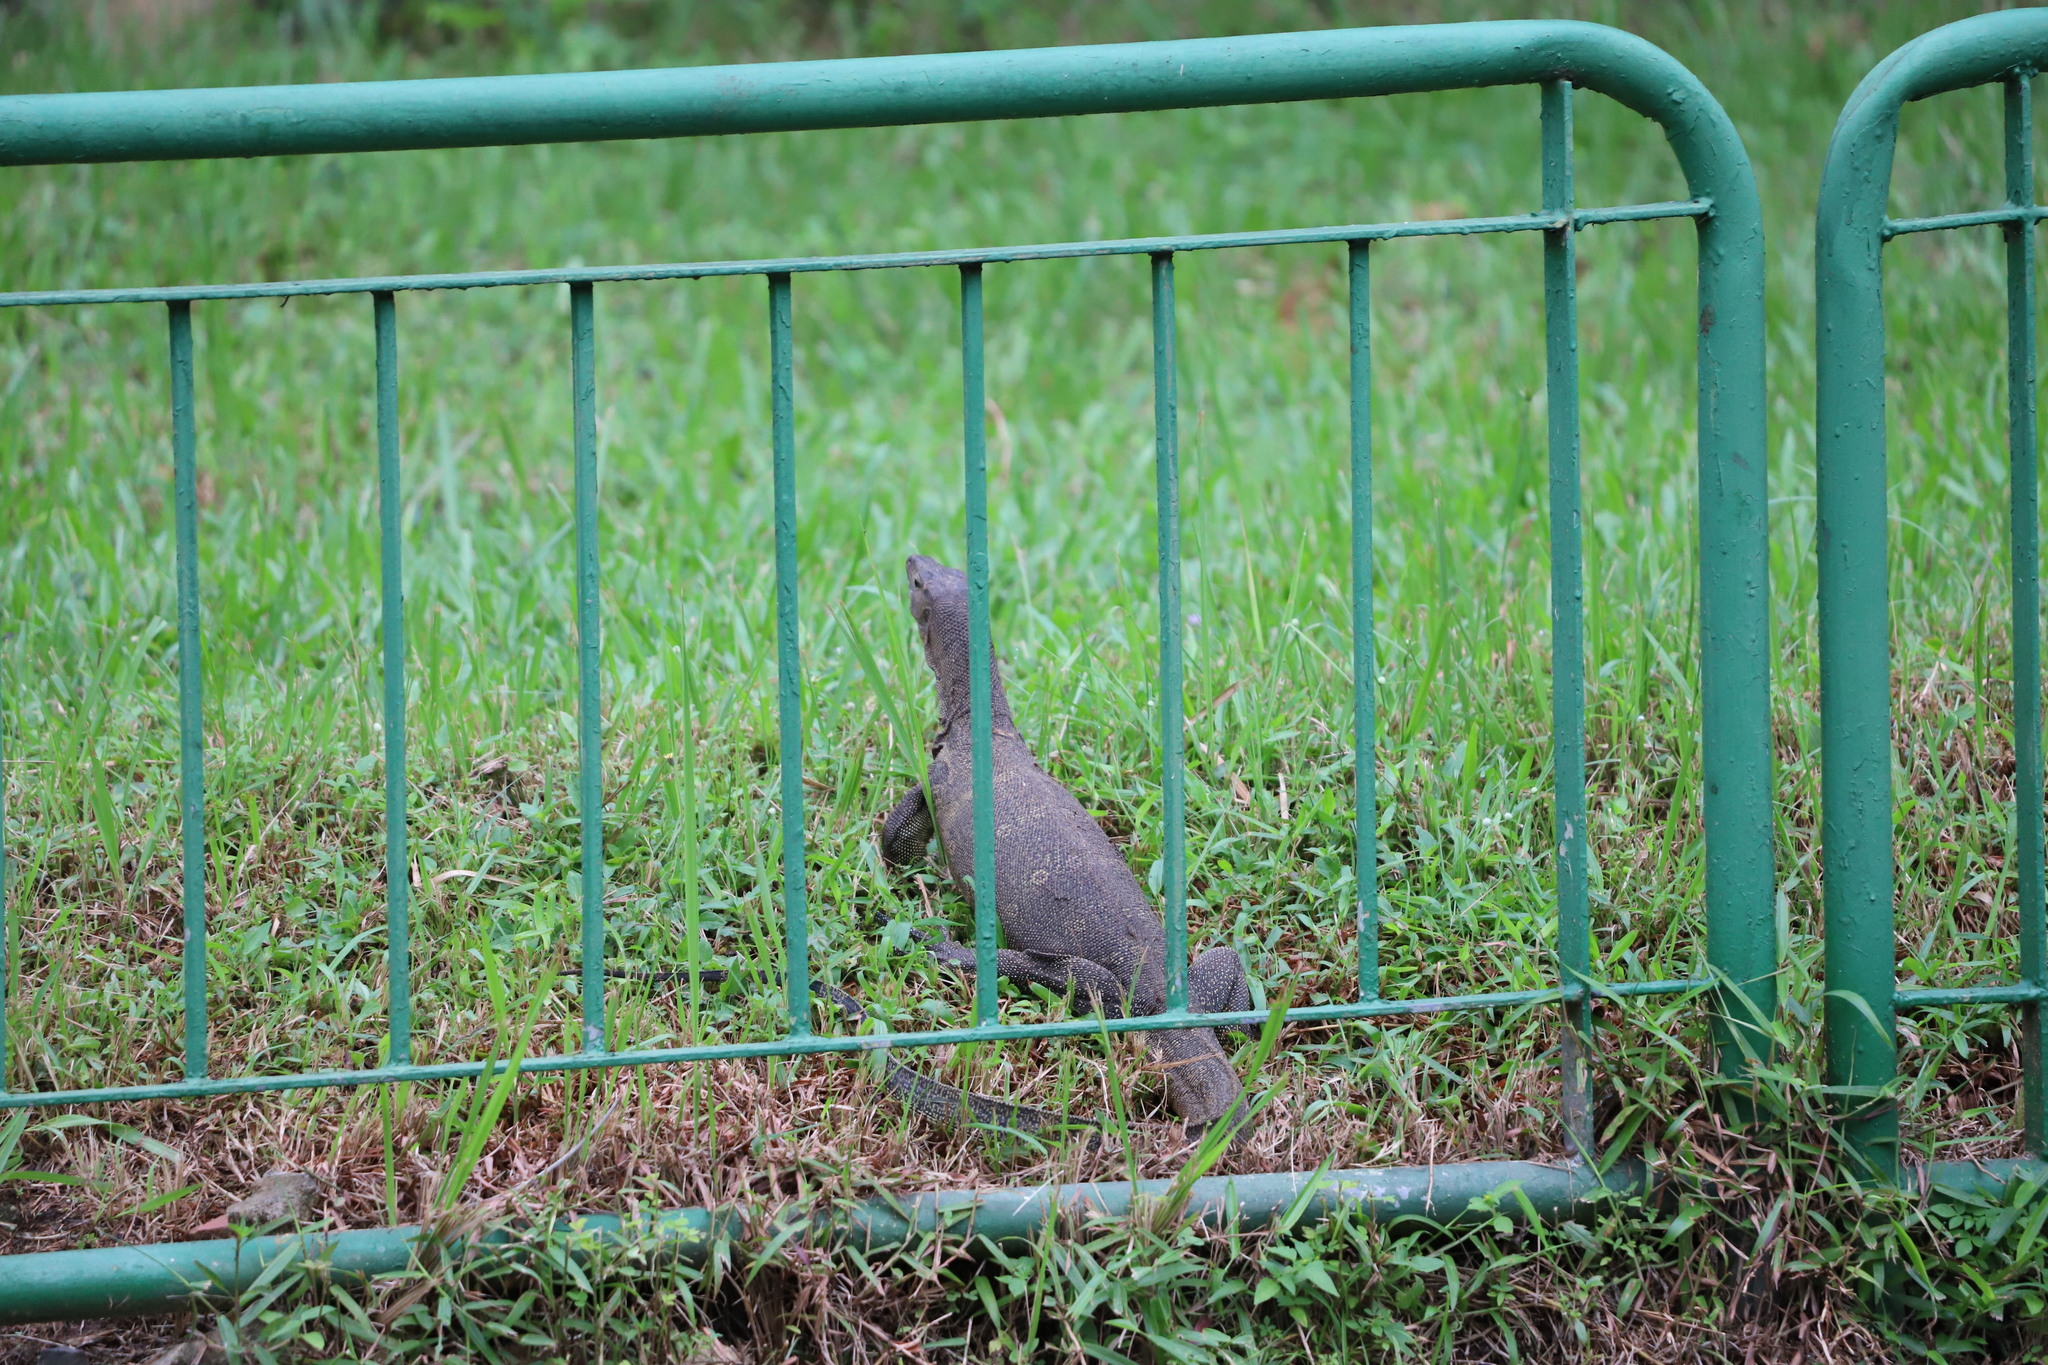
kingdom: Animalia
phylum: Chordata
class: Squamata
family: Varanidae
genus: Varanus
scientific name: Varanus salvator
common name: Common water monitor
